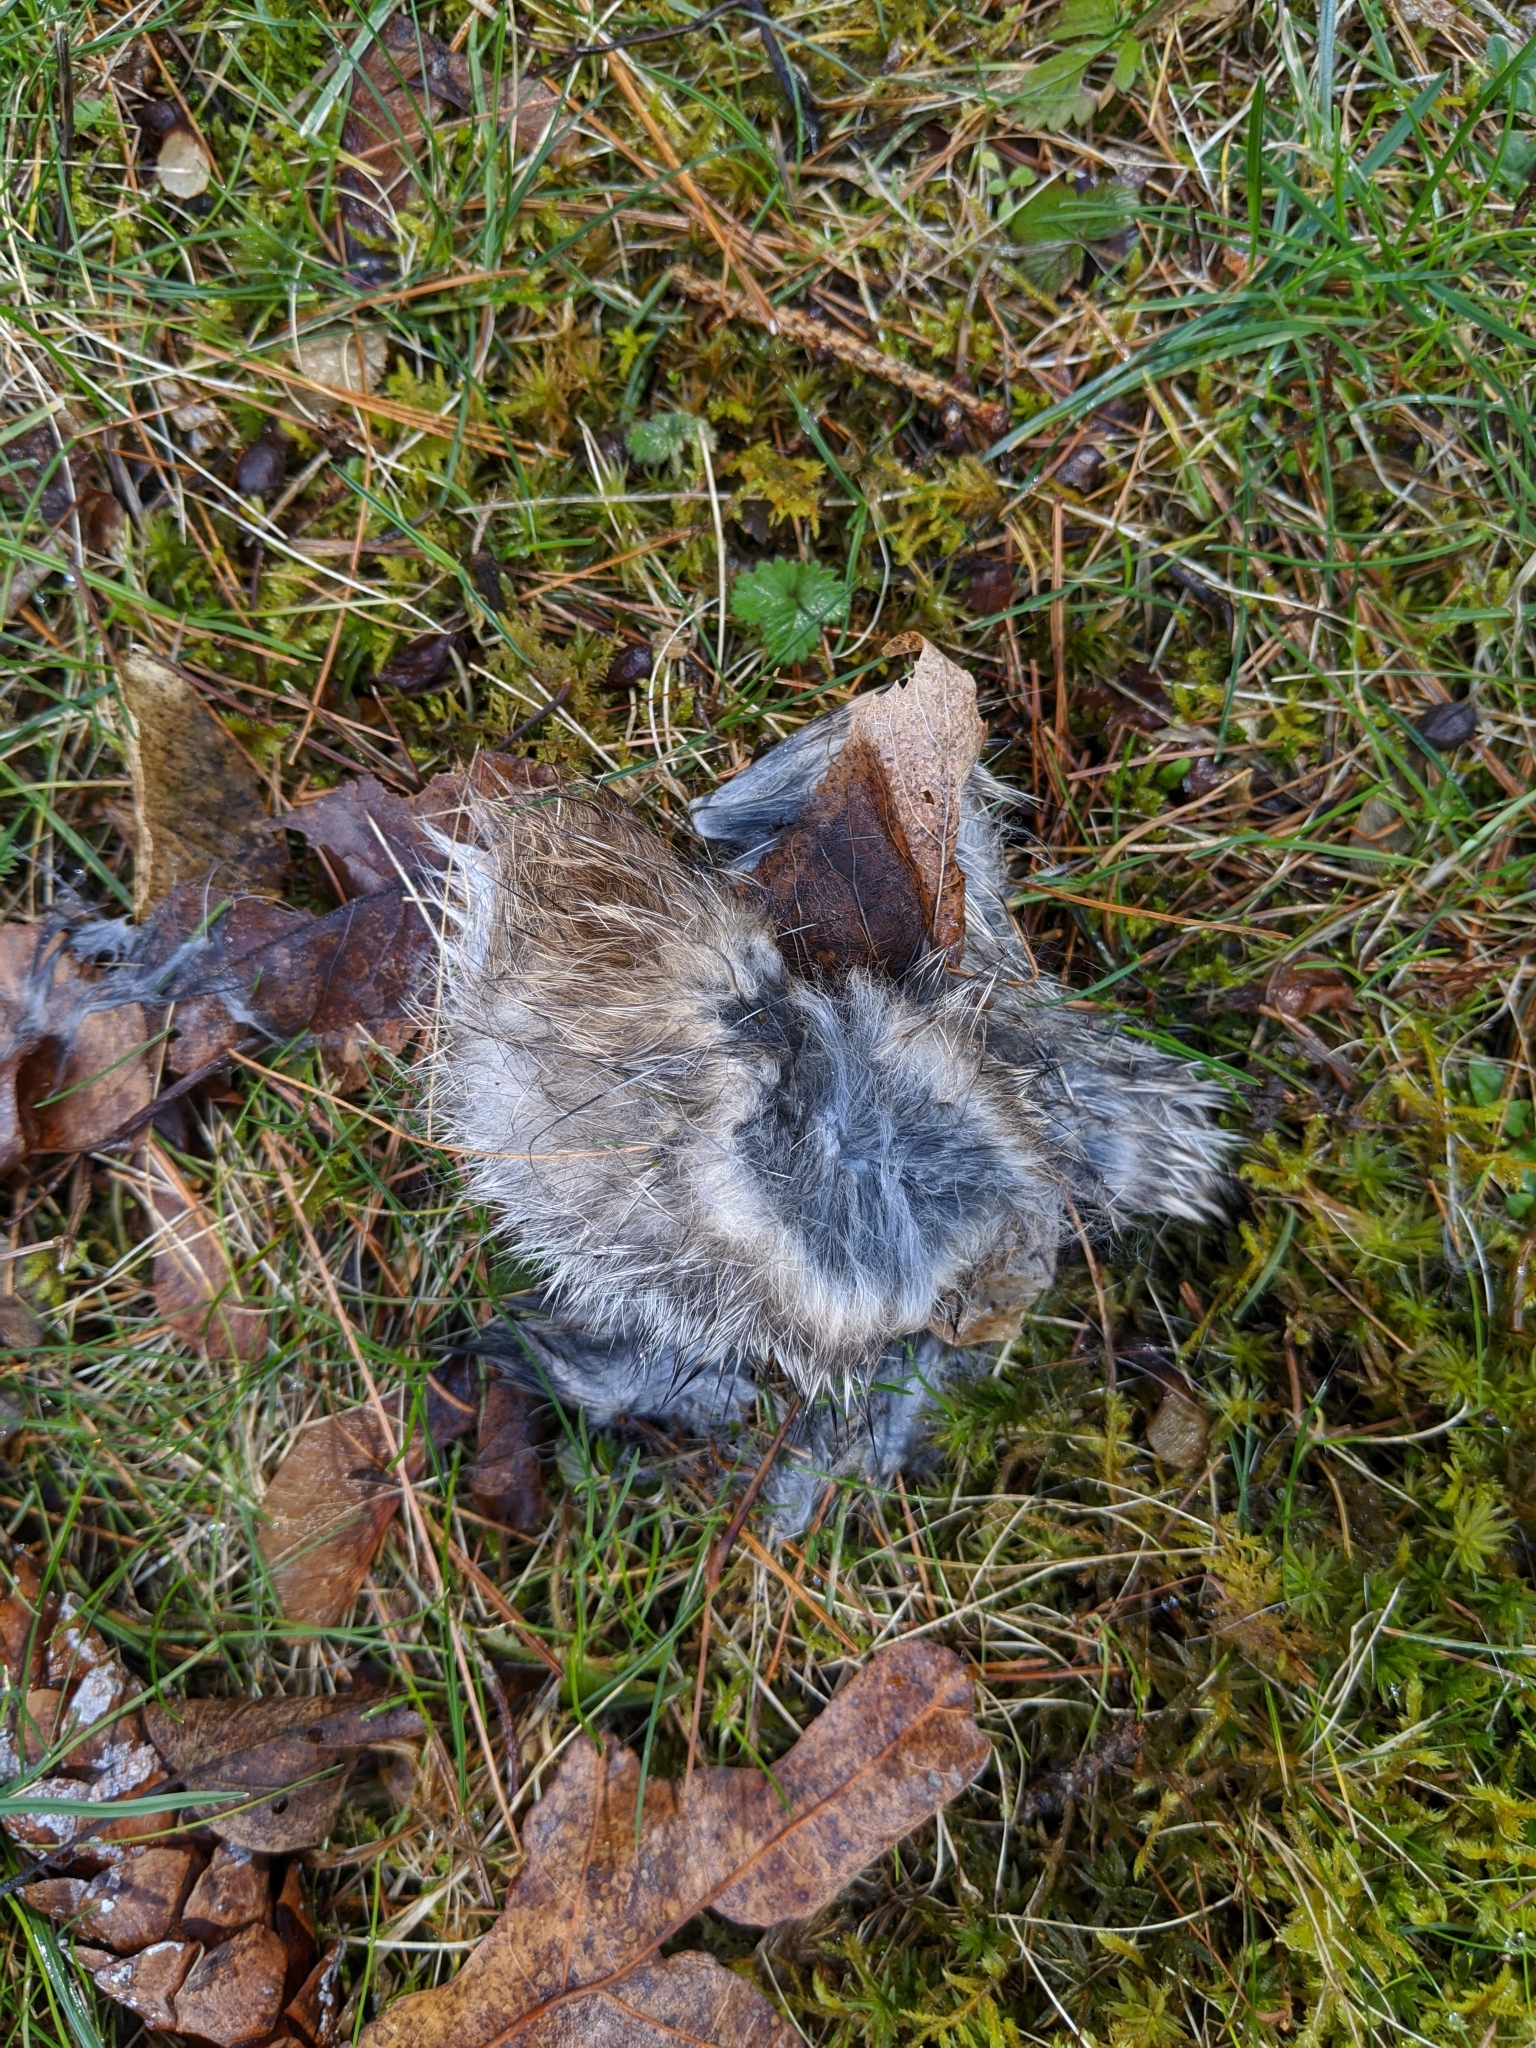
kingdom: Animalia
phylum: Chordata
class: Mammalia
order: Lagomorpha
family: Leporidae
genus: Sylvilagus
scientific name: Sylvilagus floridanus
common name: Eastern cottontail
